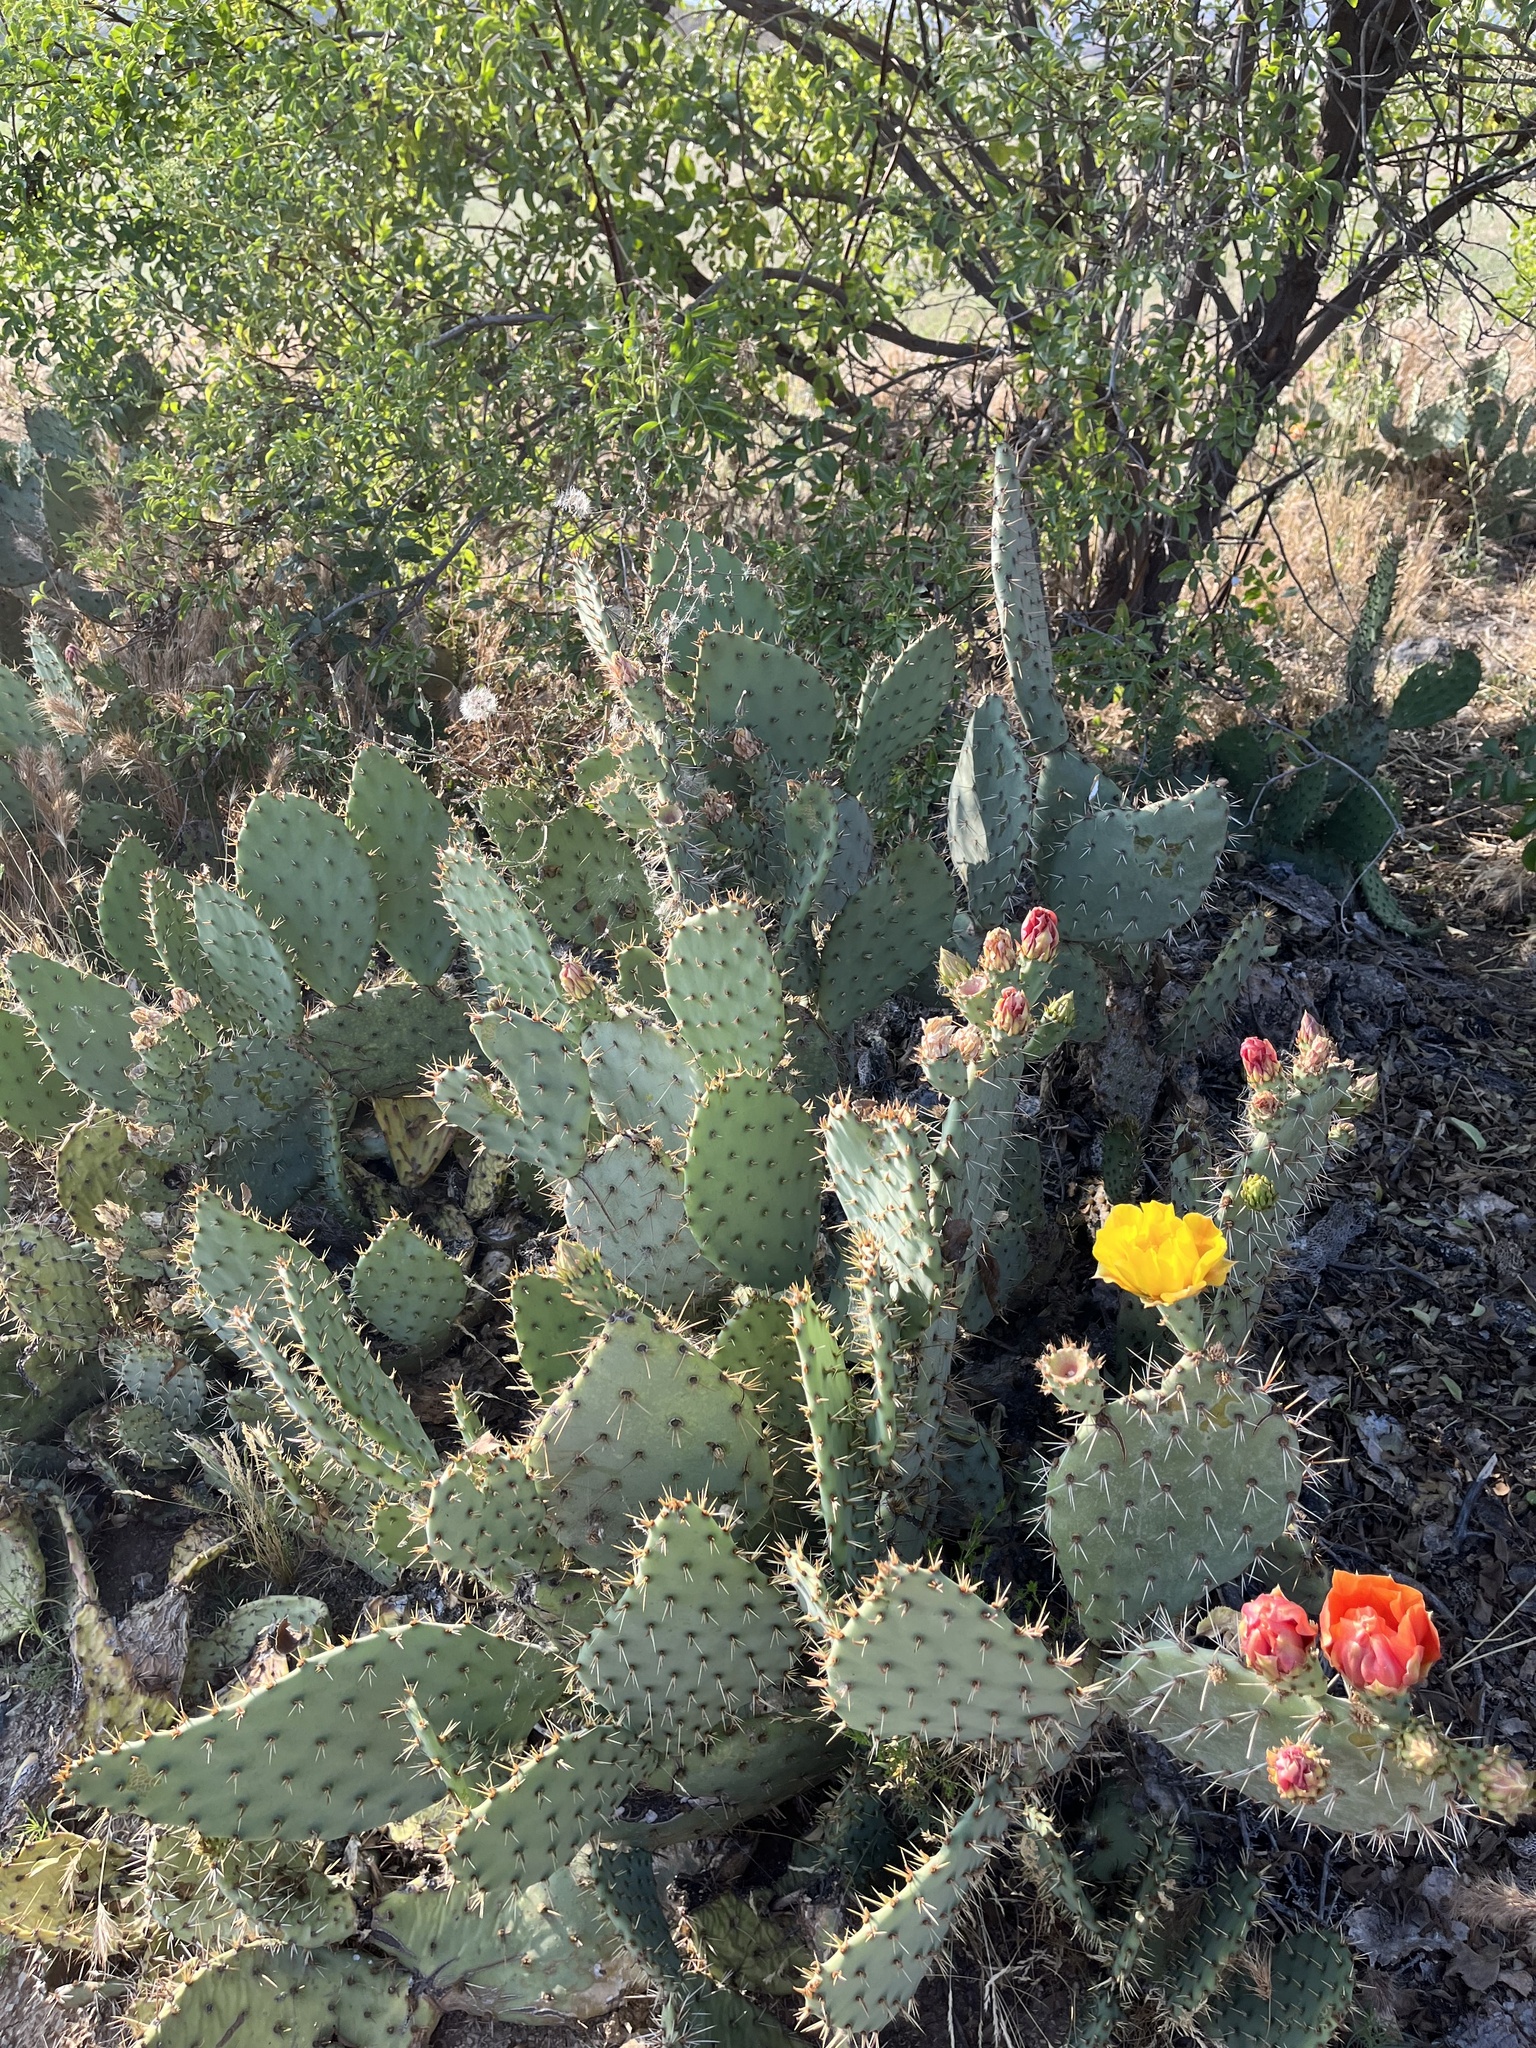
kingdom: Plantae
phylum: Tracheophyta
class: Magnoliopsida
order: Caryophyllales
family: Cactaceae
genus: Opuntia
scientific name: Opuntia littoralis
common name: Coastal prickly-pear
